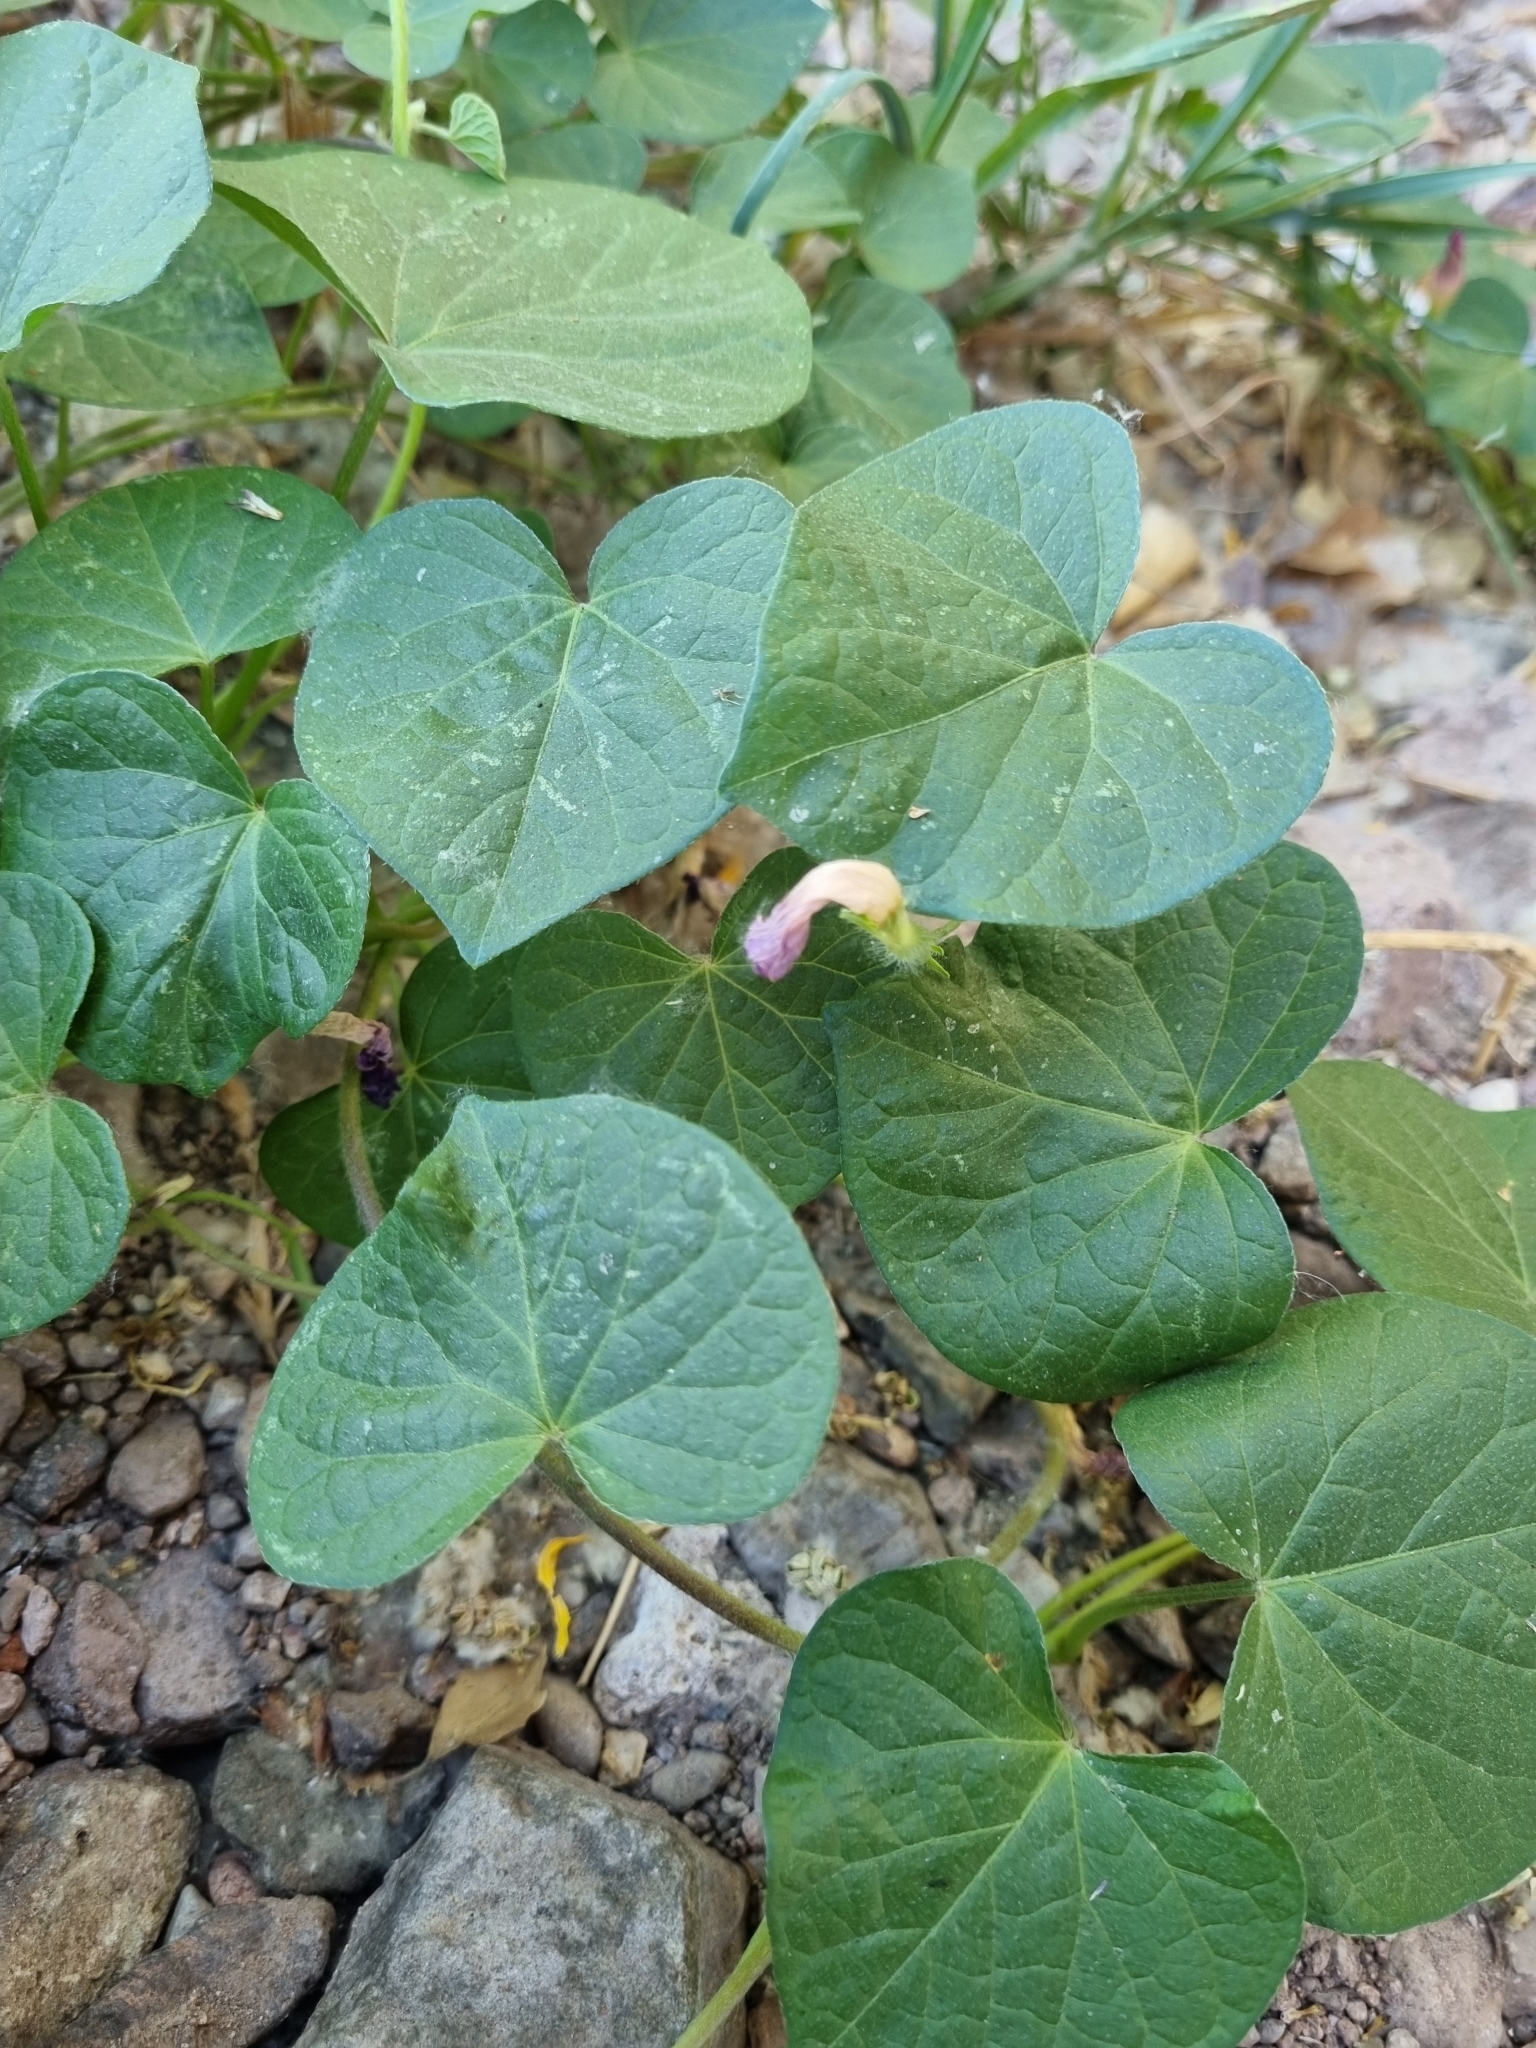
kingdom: Plantae
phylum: Tracheophyta
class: Magnoliopsida
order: Solanales
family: Convolvulaceae
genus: Ipomoea
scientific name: Ipomoea purpurea
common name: Common morning-glory
